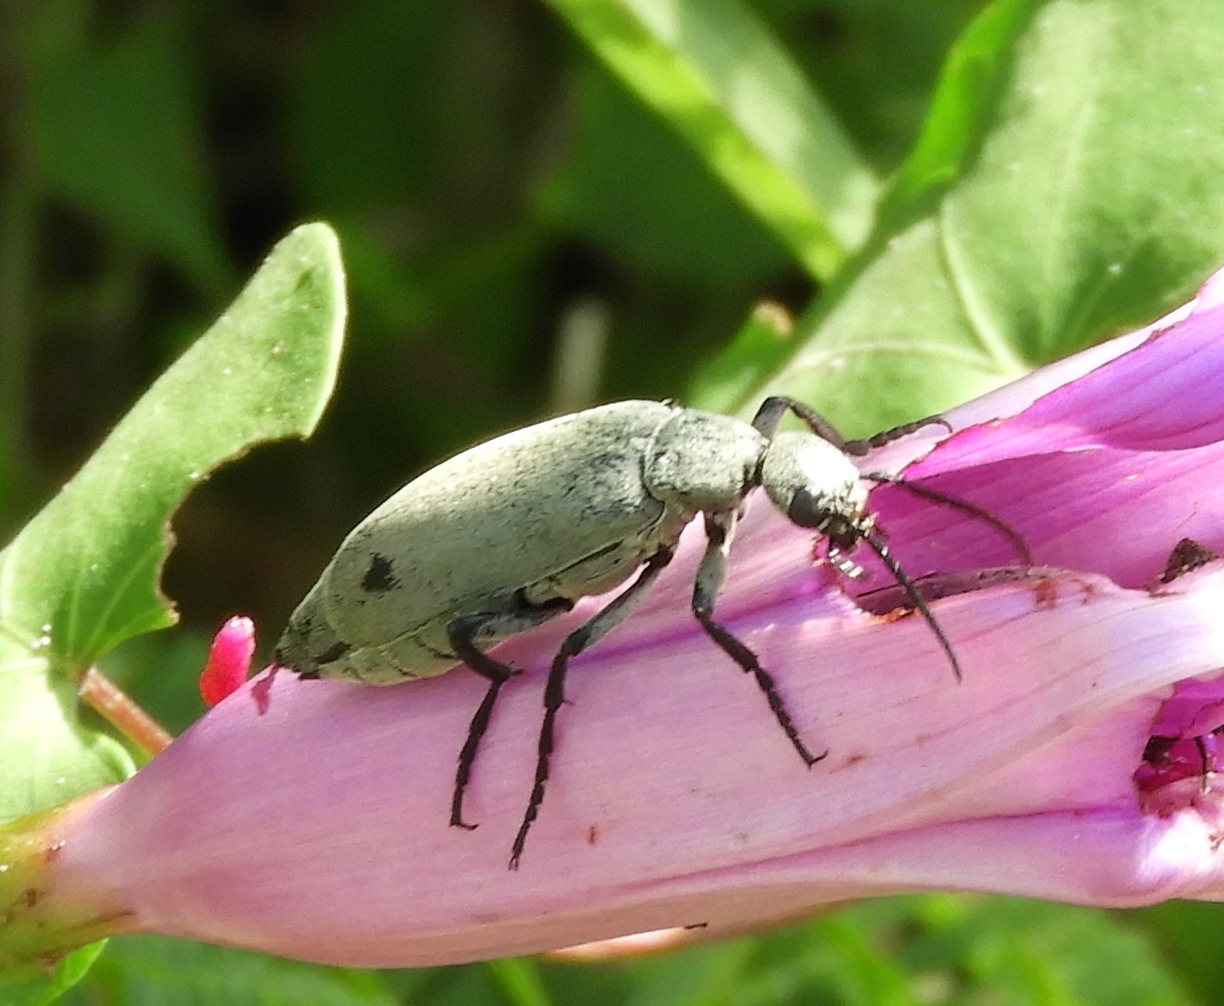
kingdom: Animalia
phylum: Arthropoda
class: Insecta
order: Coleoptera
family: Meloidae
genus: Epicauta
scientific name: Epicauta bipunctata
